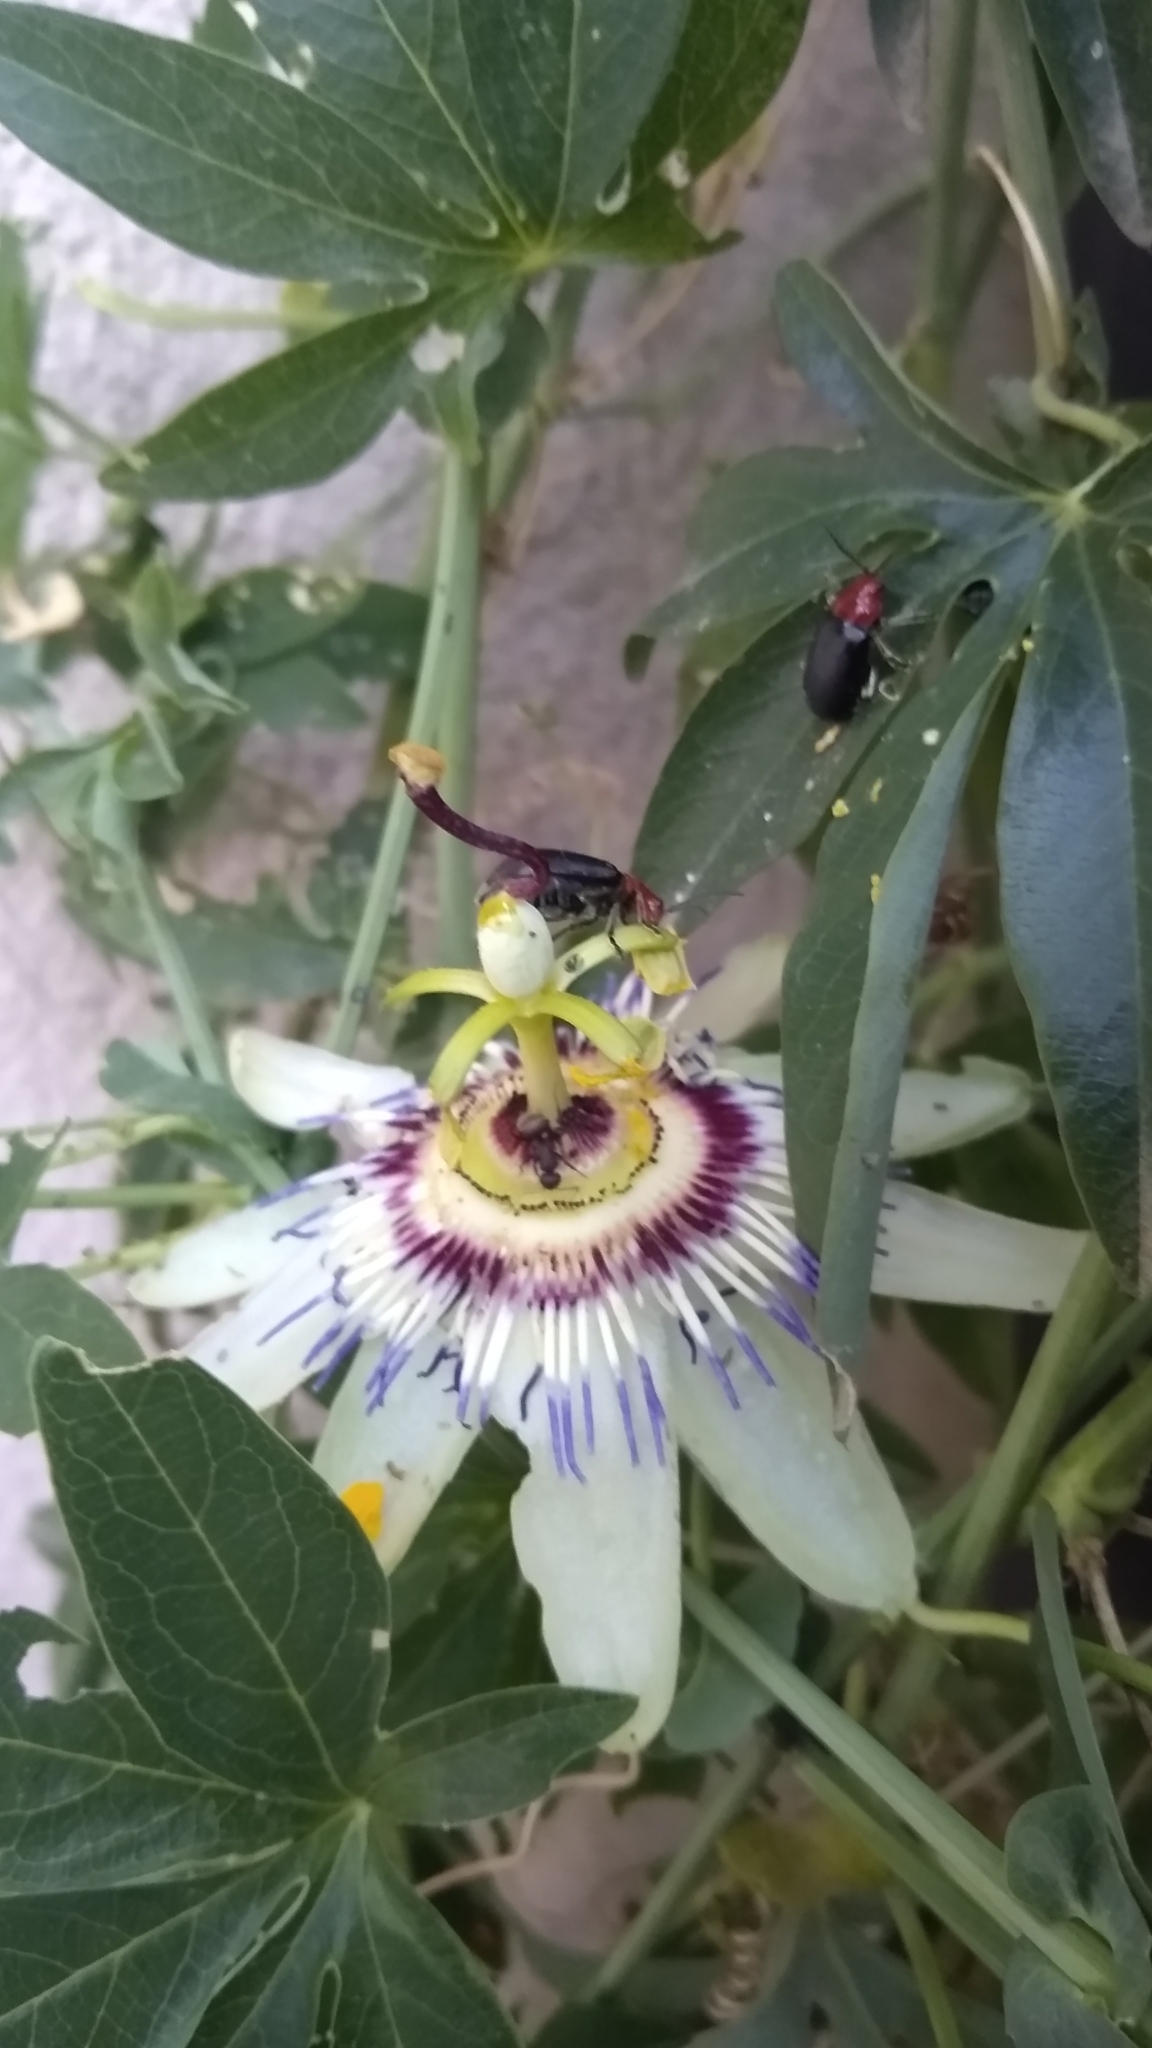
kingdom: Animalia
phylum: Arthropoda
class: Insecta
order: Coleoptera
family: Chrysomelidae
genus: Cacoscelis
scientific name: Cacoscelis
